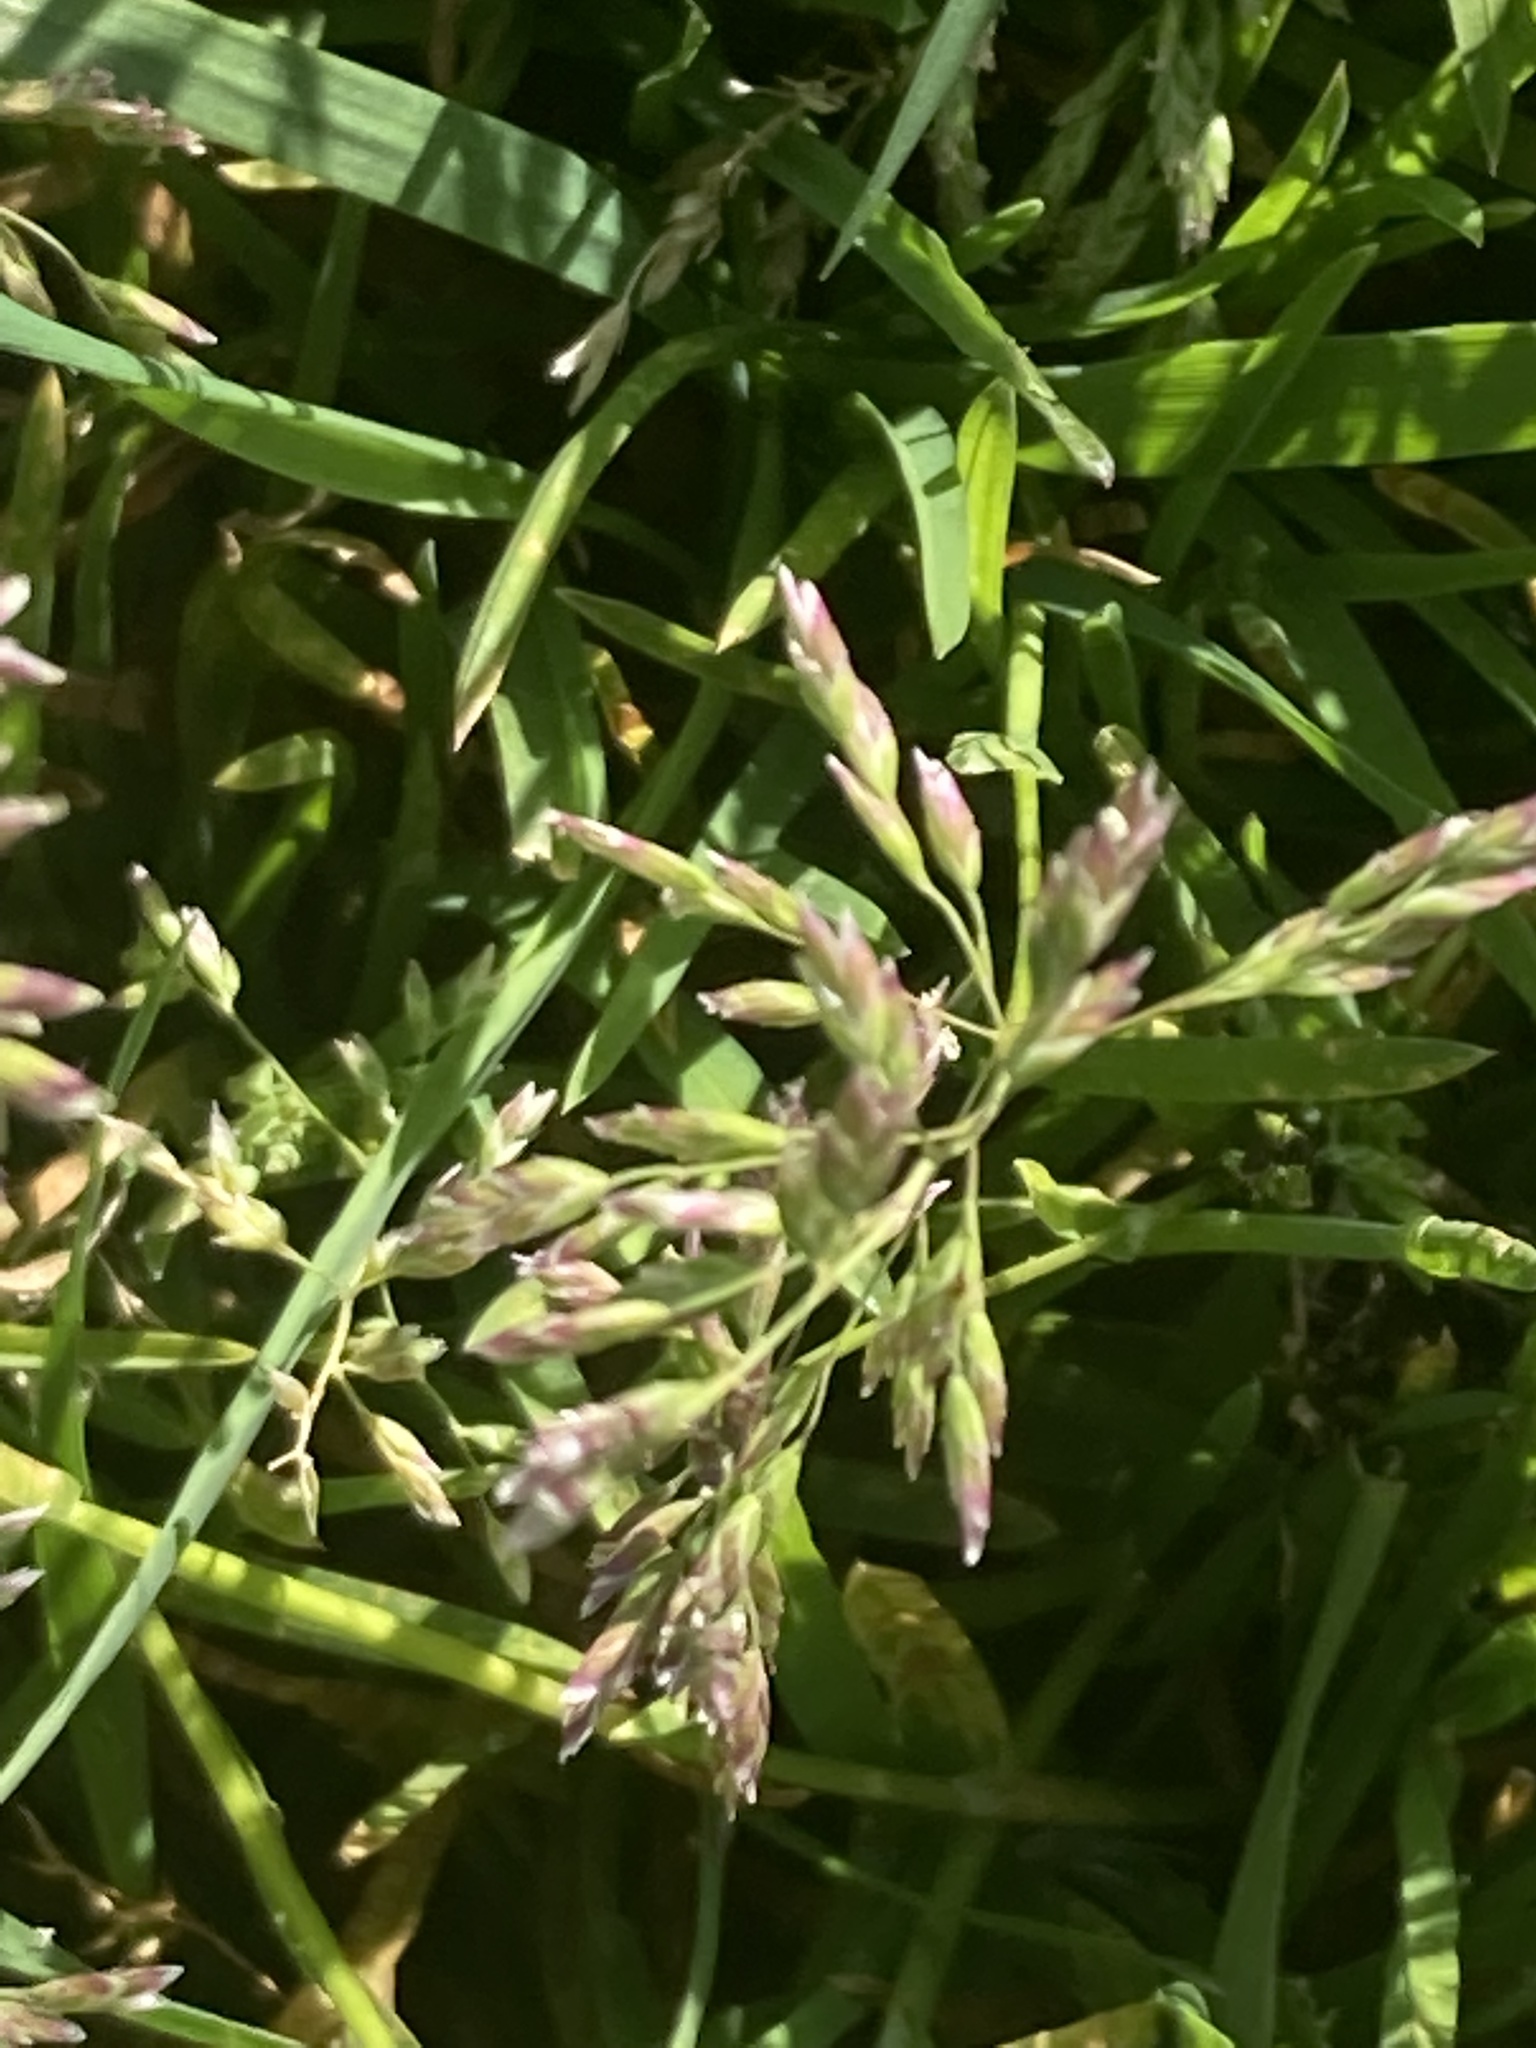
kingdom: Plantae
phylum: Tracheophyta
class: Liliopsida
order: Poales
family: Poaceae
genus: Poa
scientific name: Poa annua
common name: Annual bluegrass
